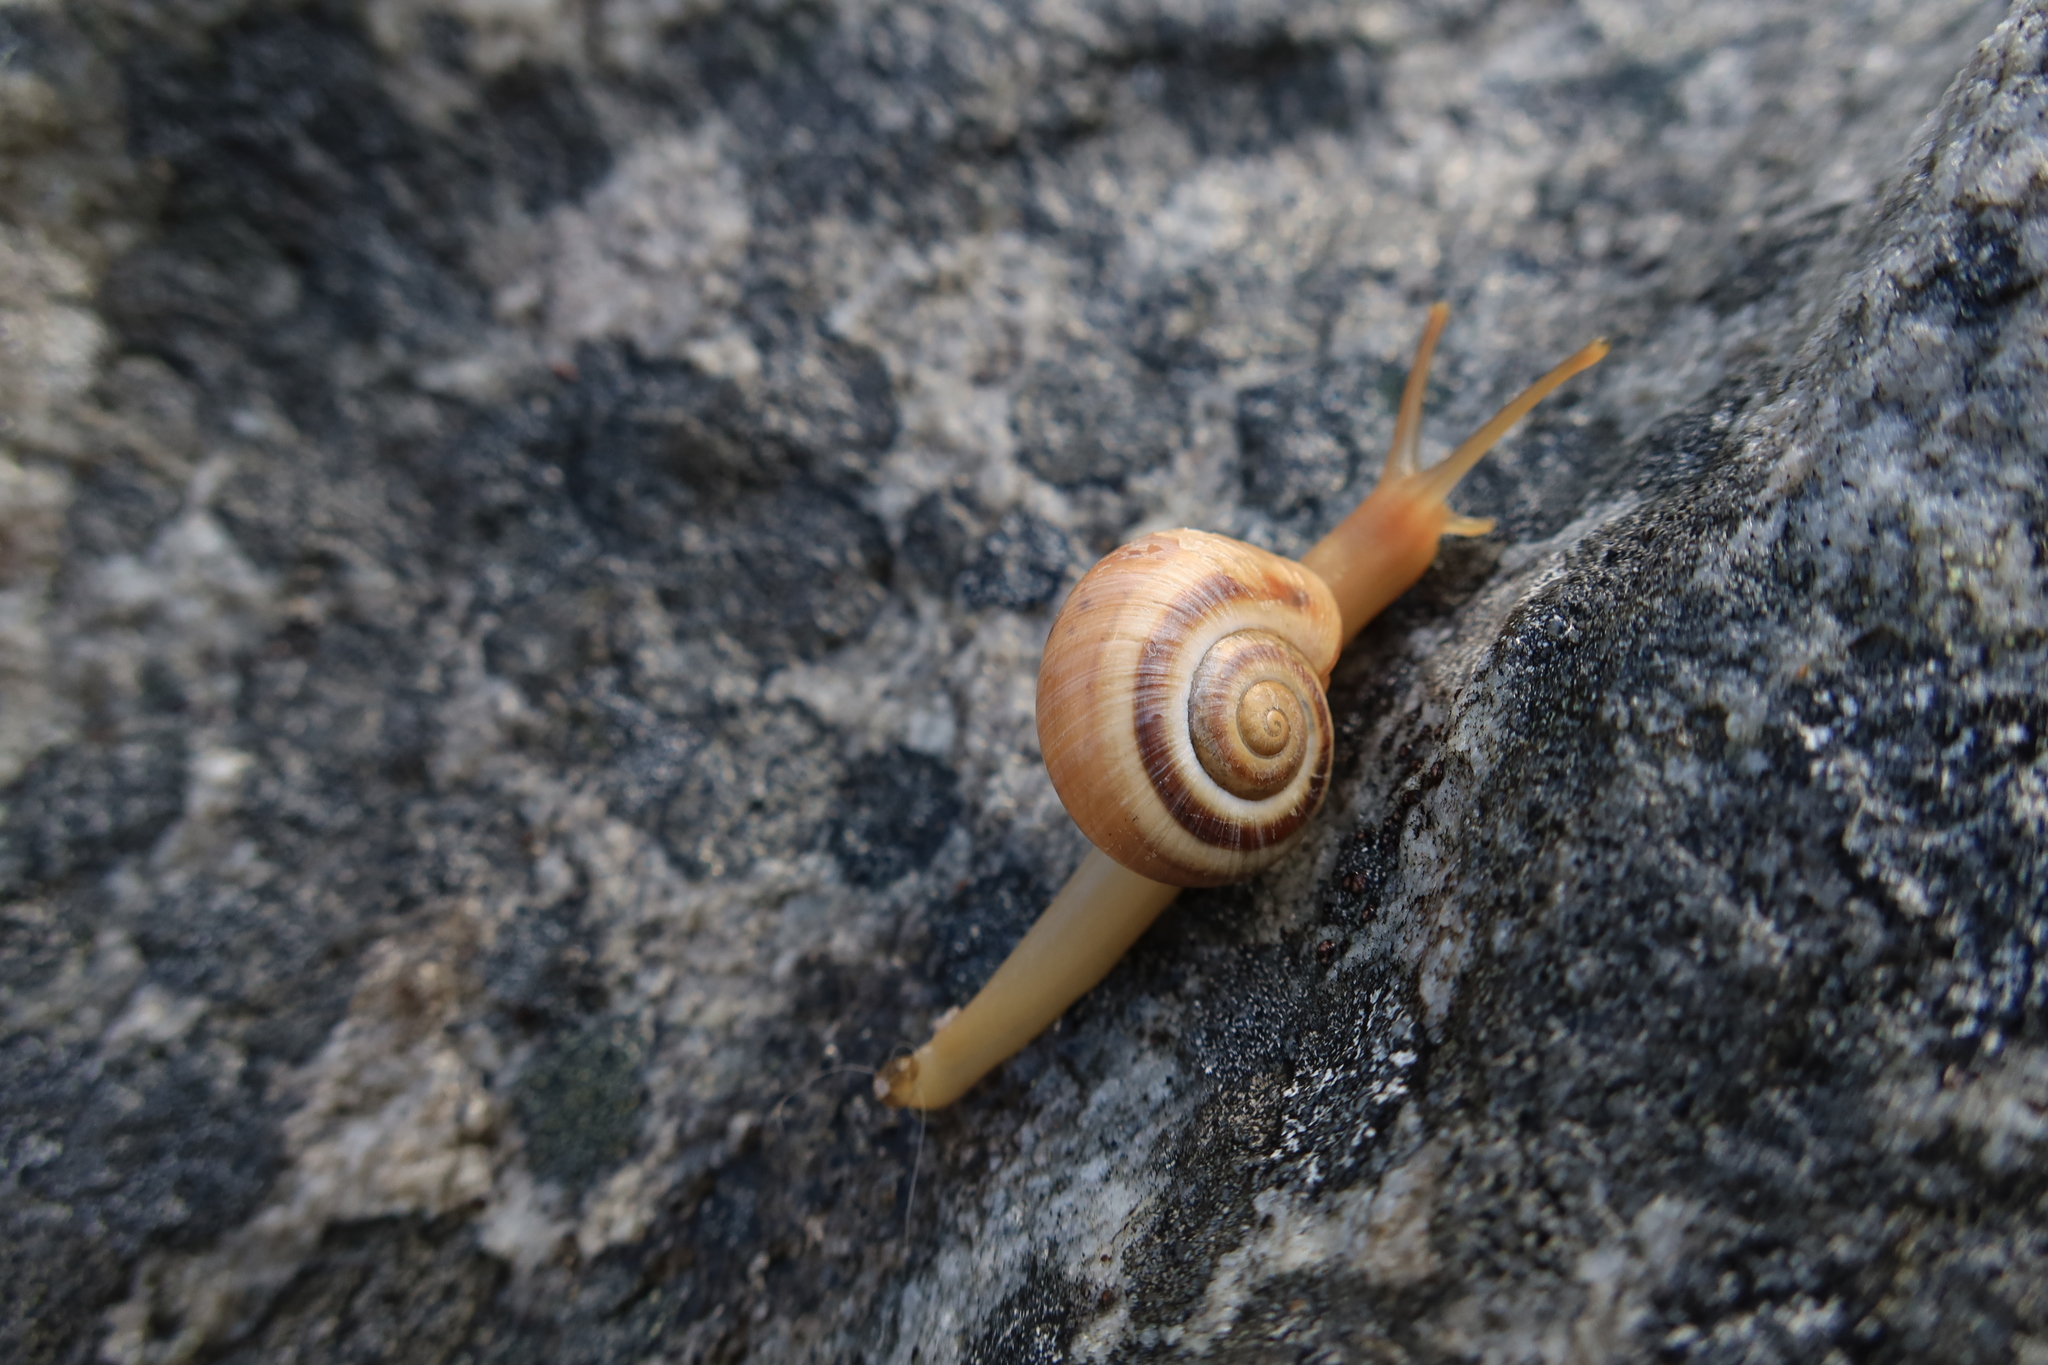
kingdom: Animalia
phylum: Mollusca
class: Gastropoda
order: Stylommatophora
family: Charopidae
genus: Phortion
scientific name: Phortion menkeanum
